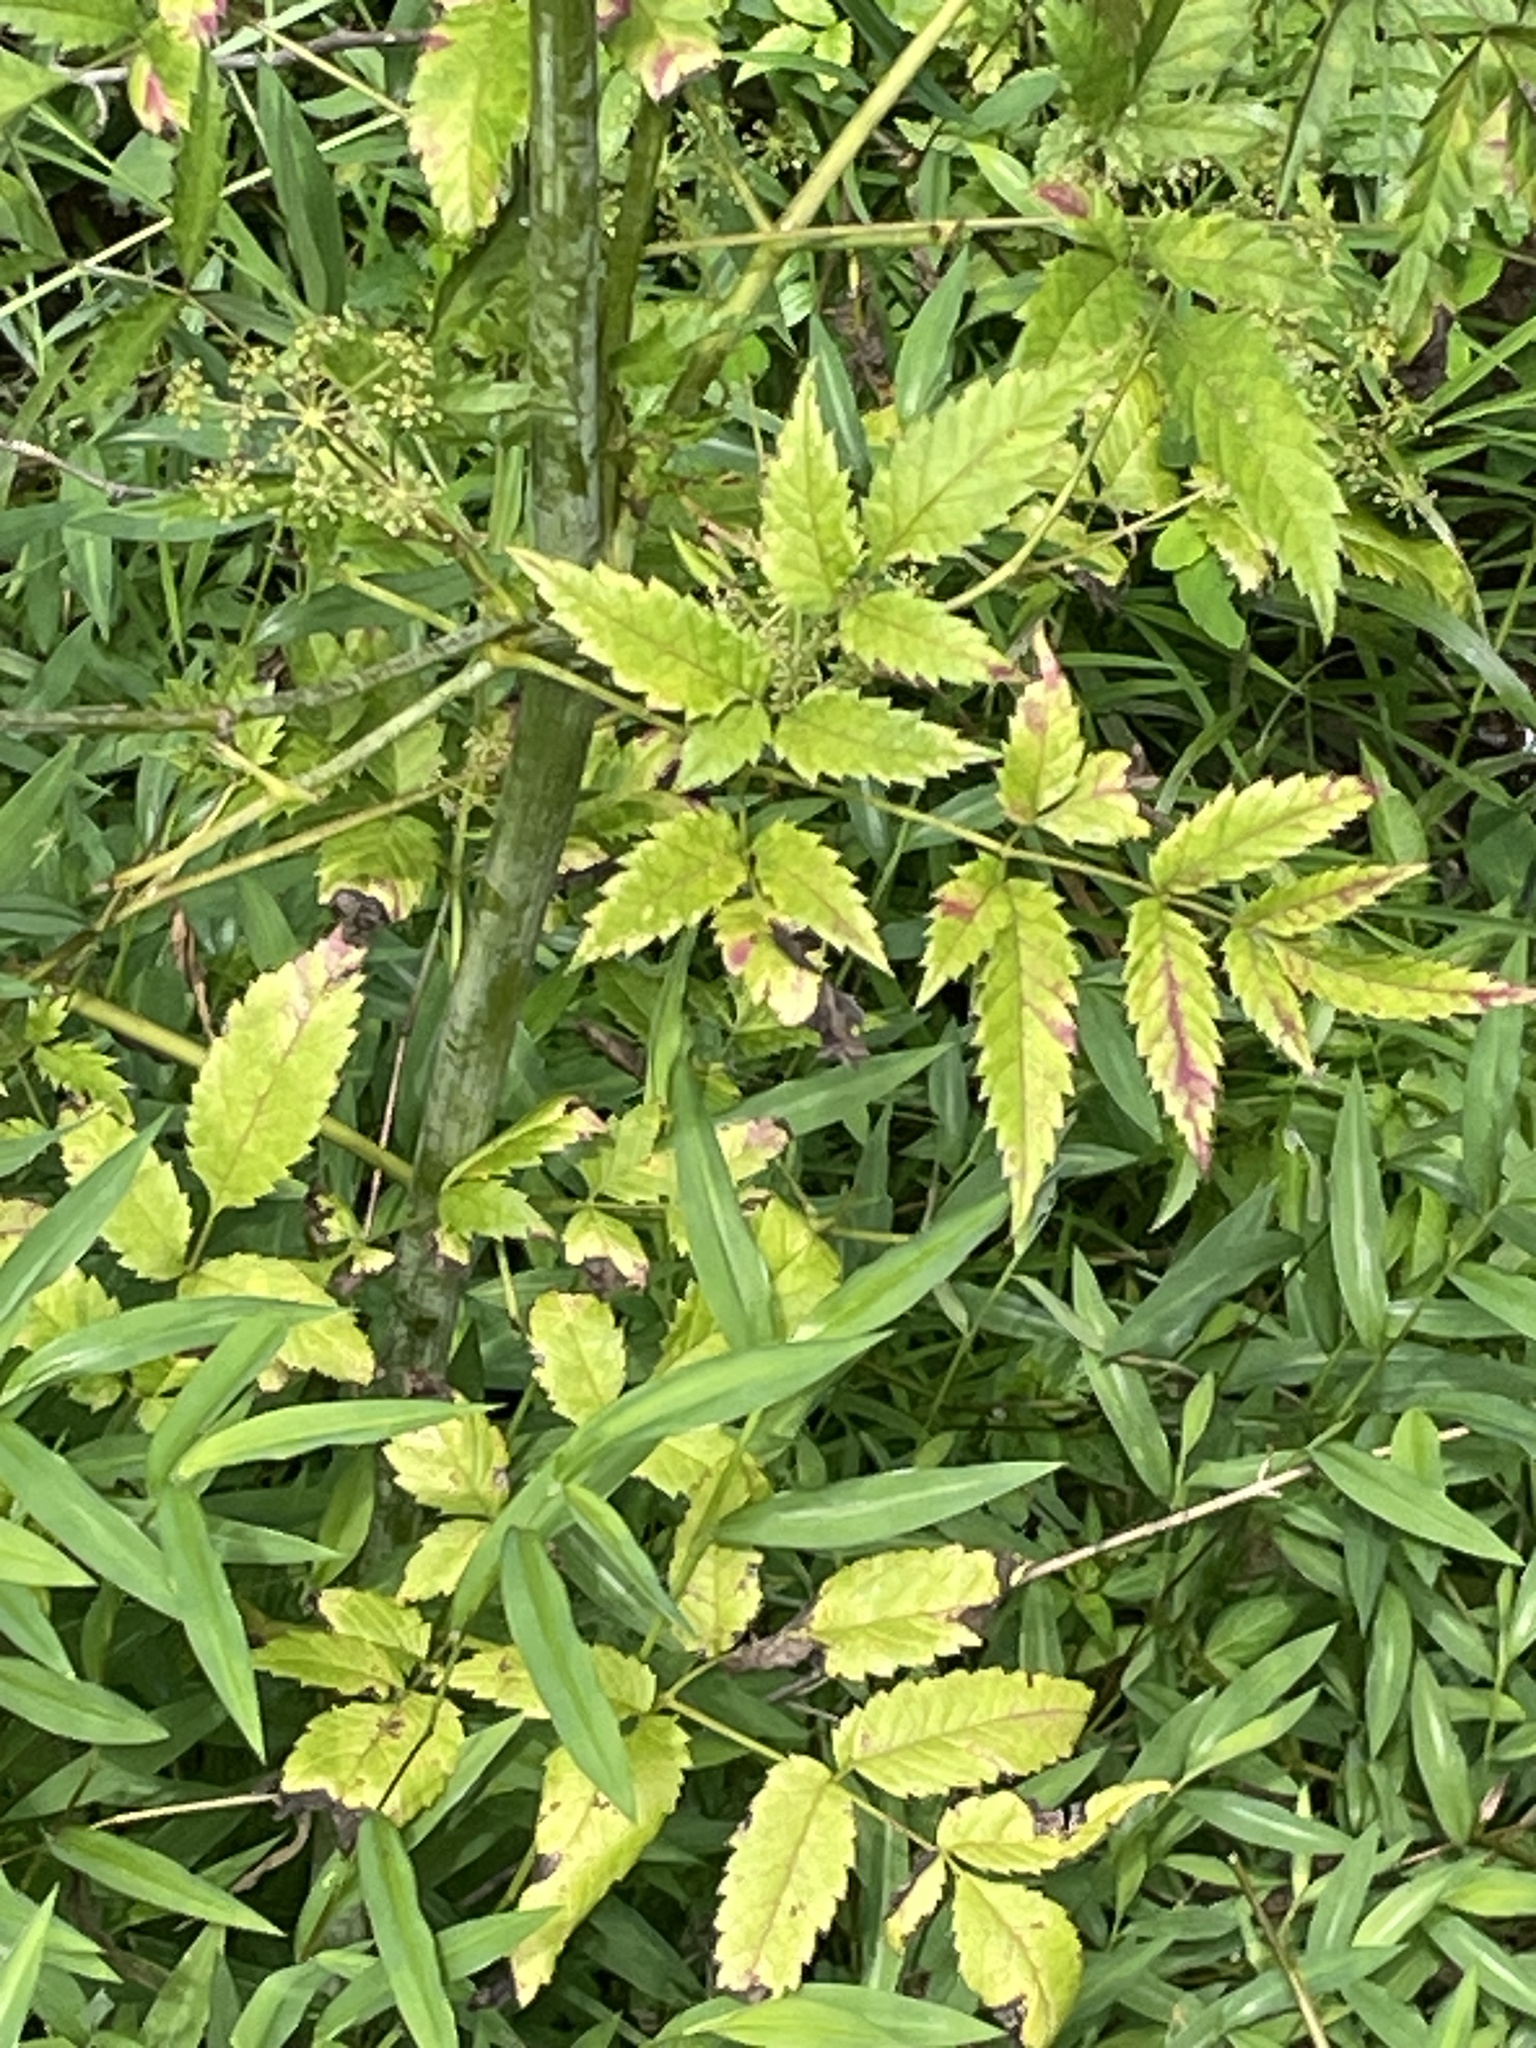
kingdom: Plantae
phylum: Tracheophyta
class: Magnoliopsida
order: Apiales
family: Apiaceae
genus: Cicuta
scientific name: Cicuta maculata
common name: Spotted cowbane
